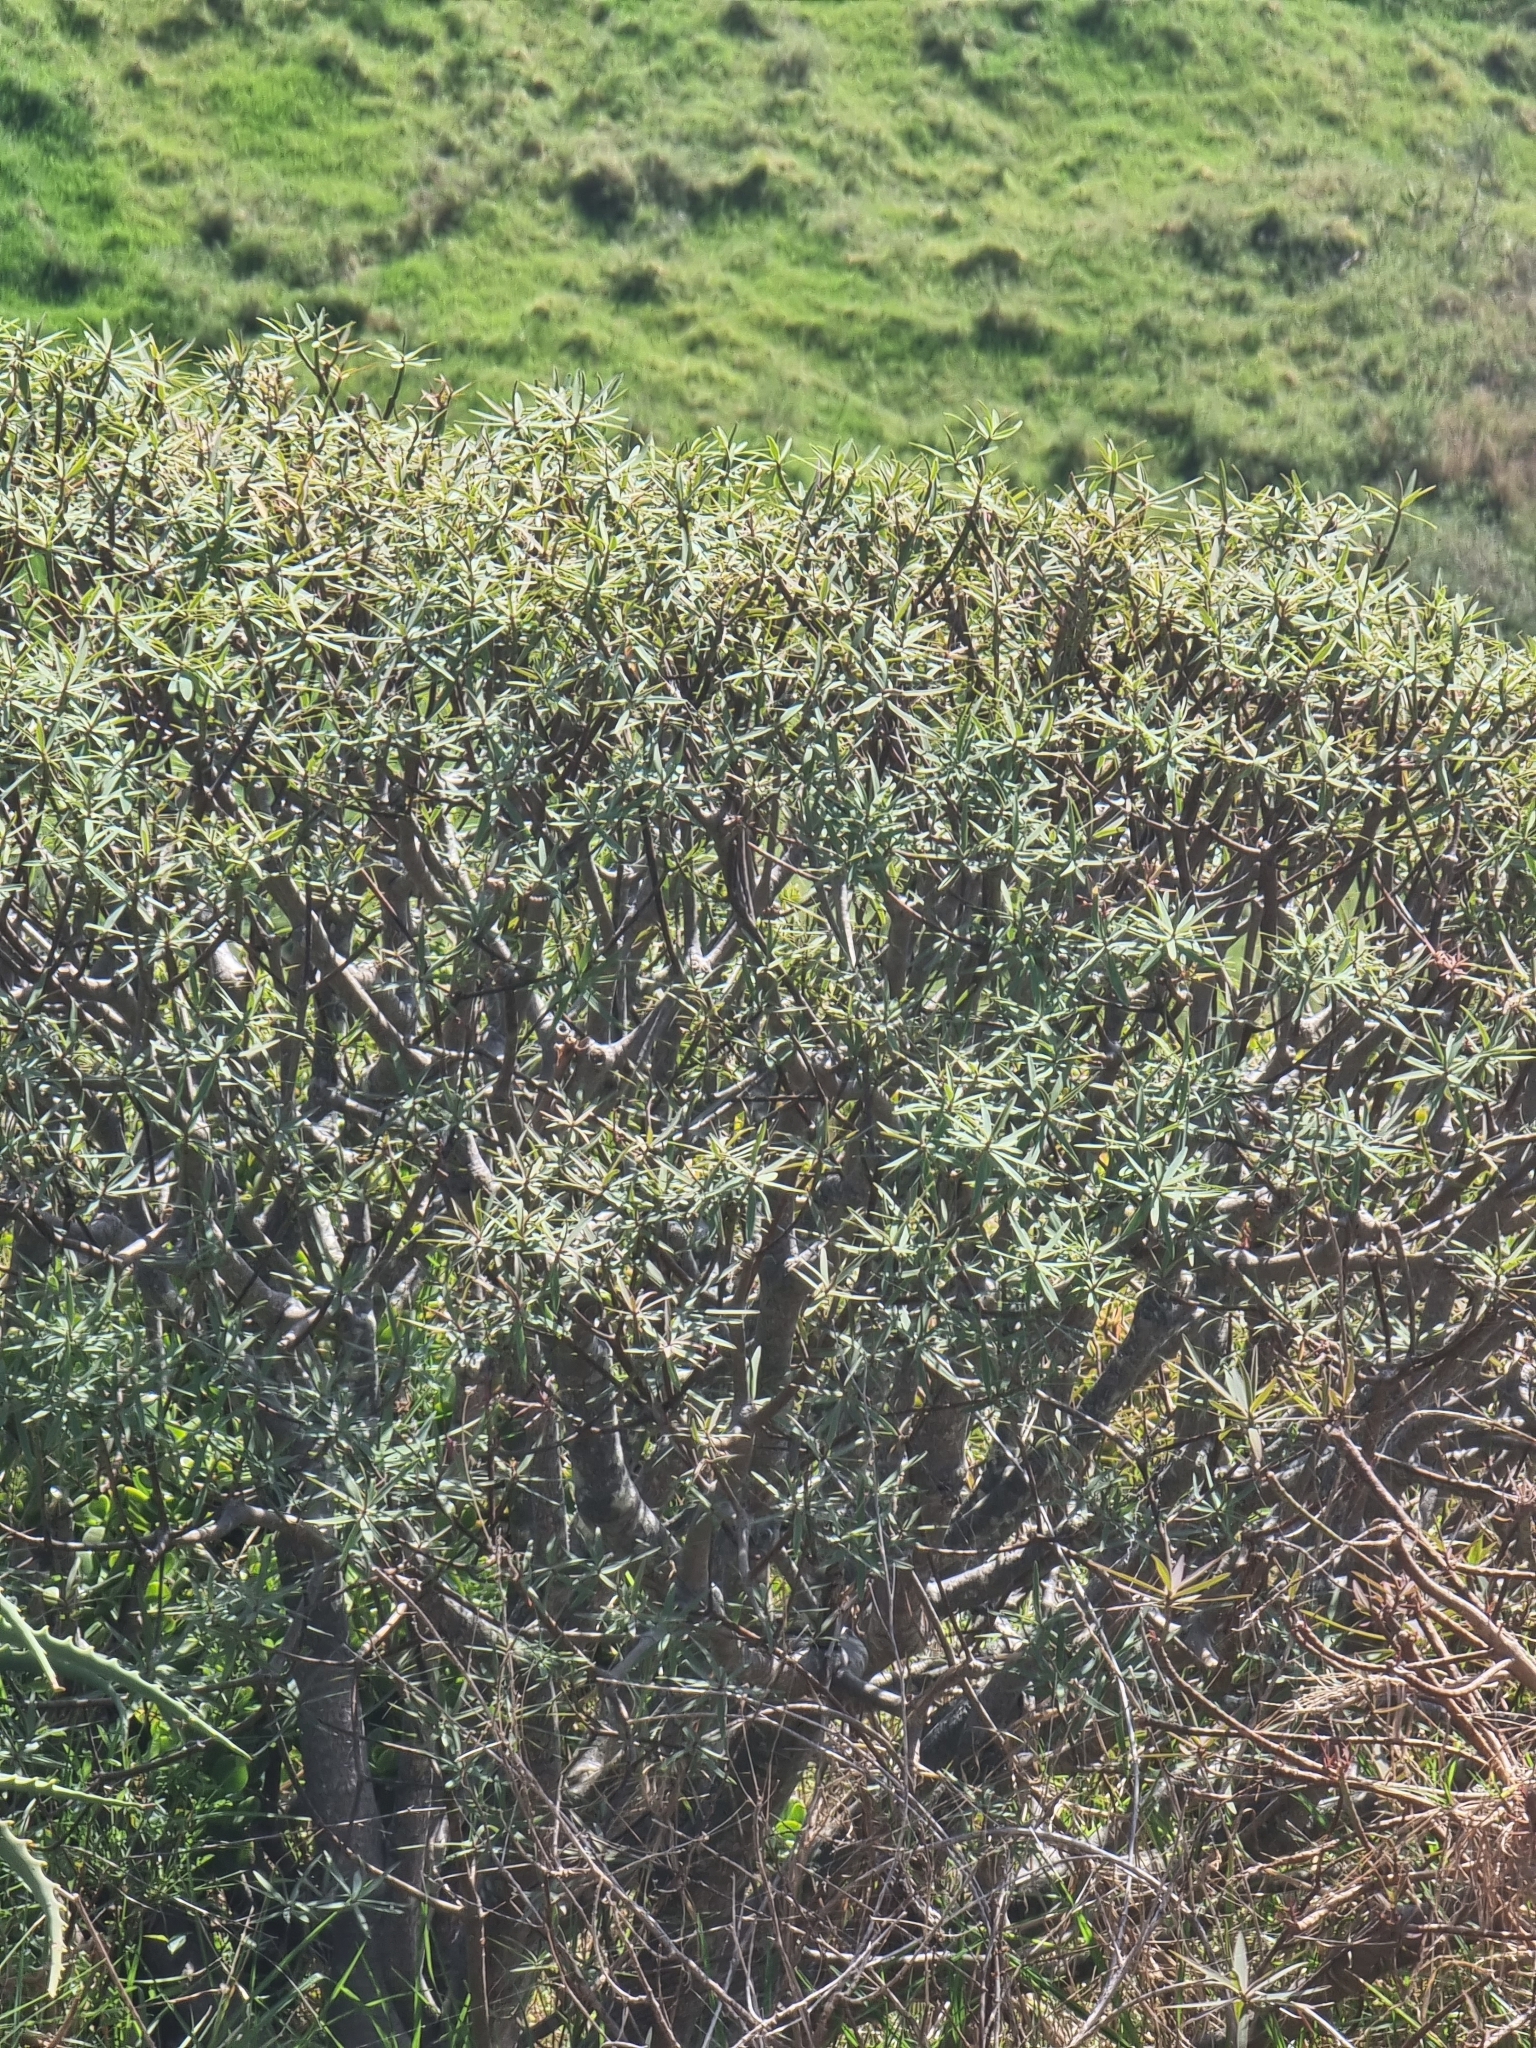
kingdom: Plantae
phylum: Tracheophyta
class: Magnoliopsida
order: Malpighiales
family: Euphorbiaceae
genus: Euphorbia
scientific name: Euphorbia piscatoria
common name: Fish-stunning spurge
